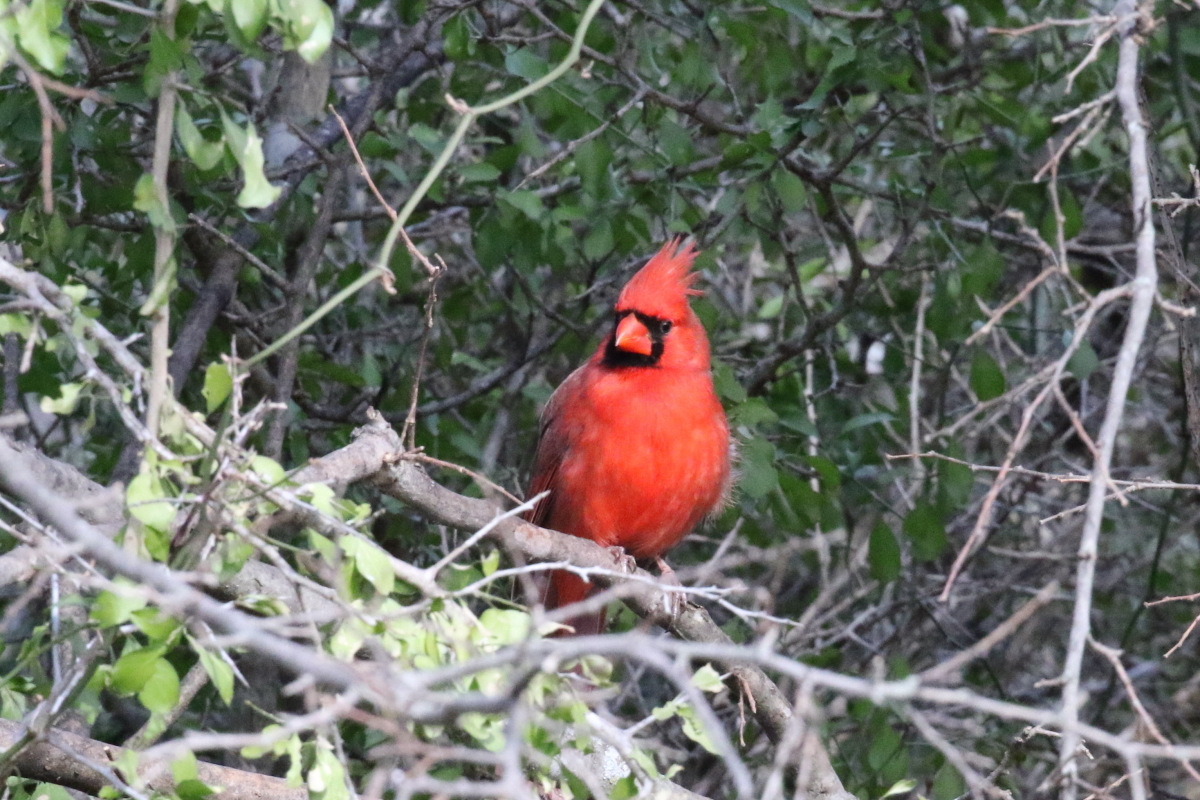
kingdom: Animalia
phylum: Chordata
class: Aves
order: Passeriformes
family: Cardinalidae
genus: Cardinalis
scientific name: Cardinalis cardinalis
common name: Northern cardinal
